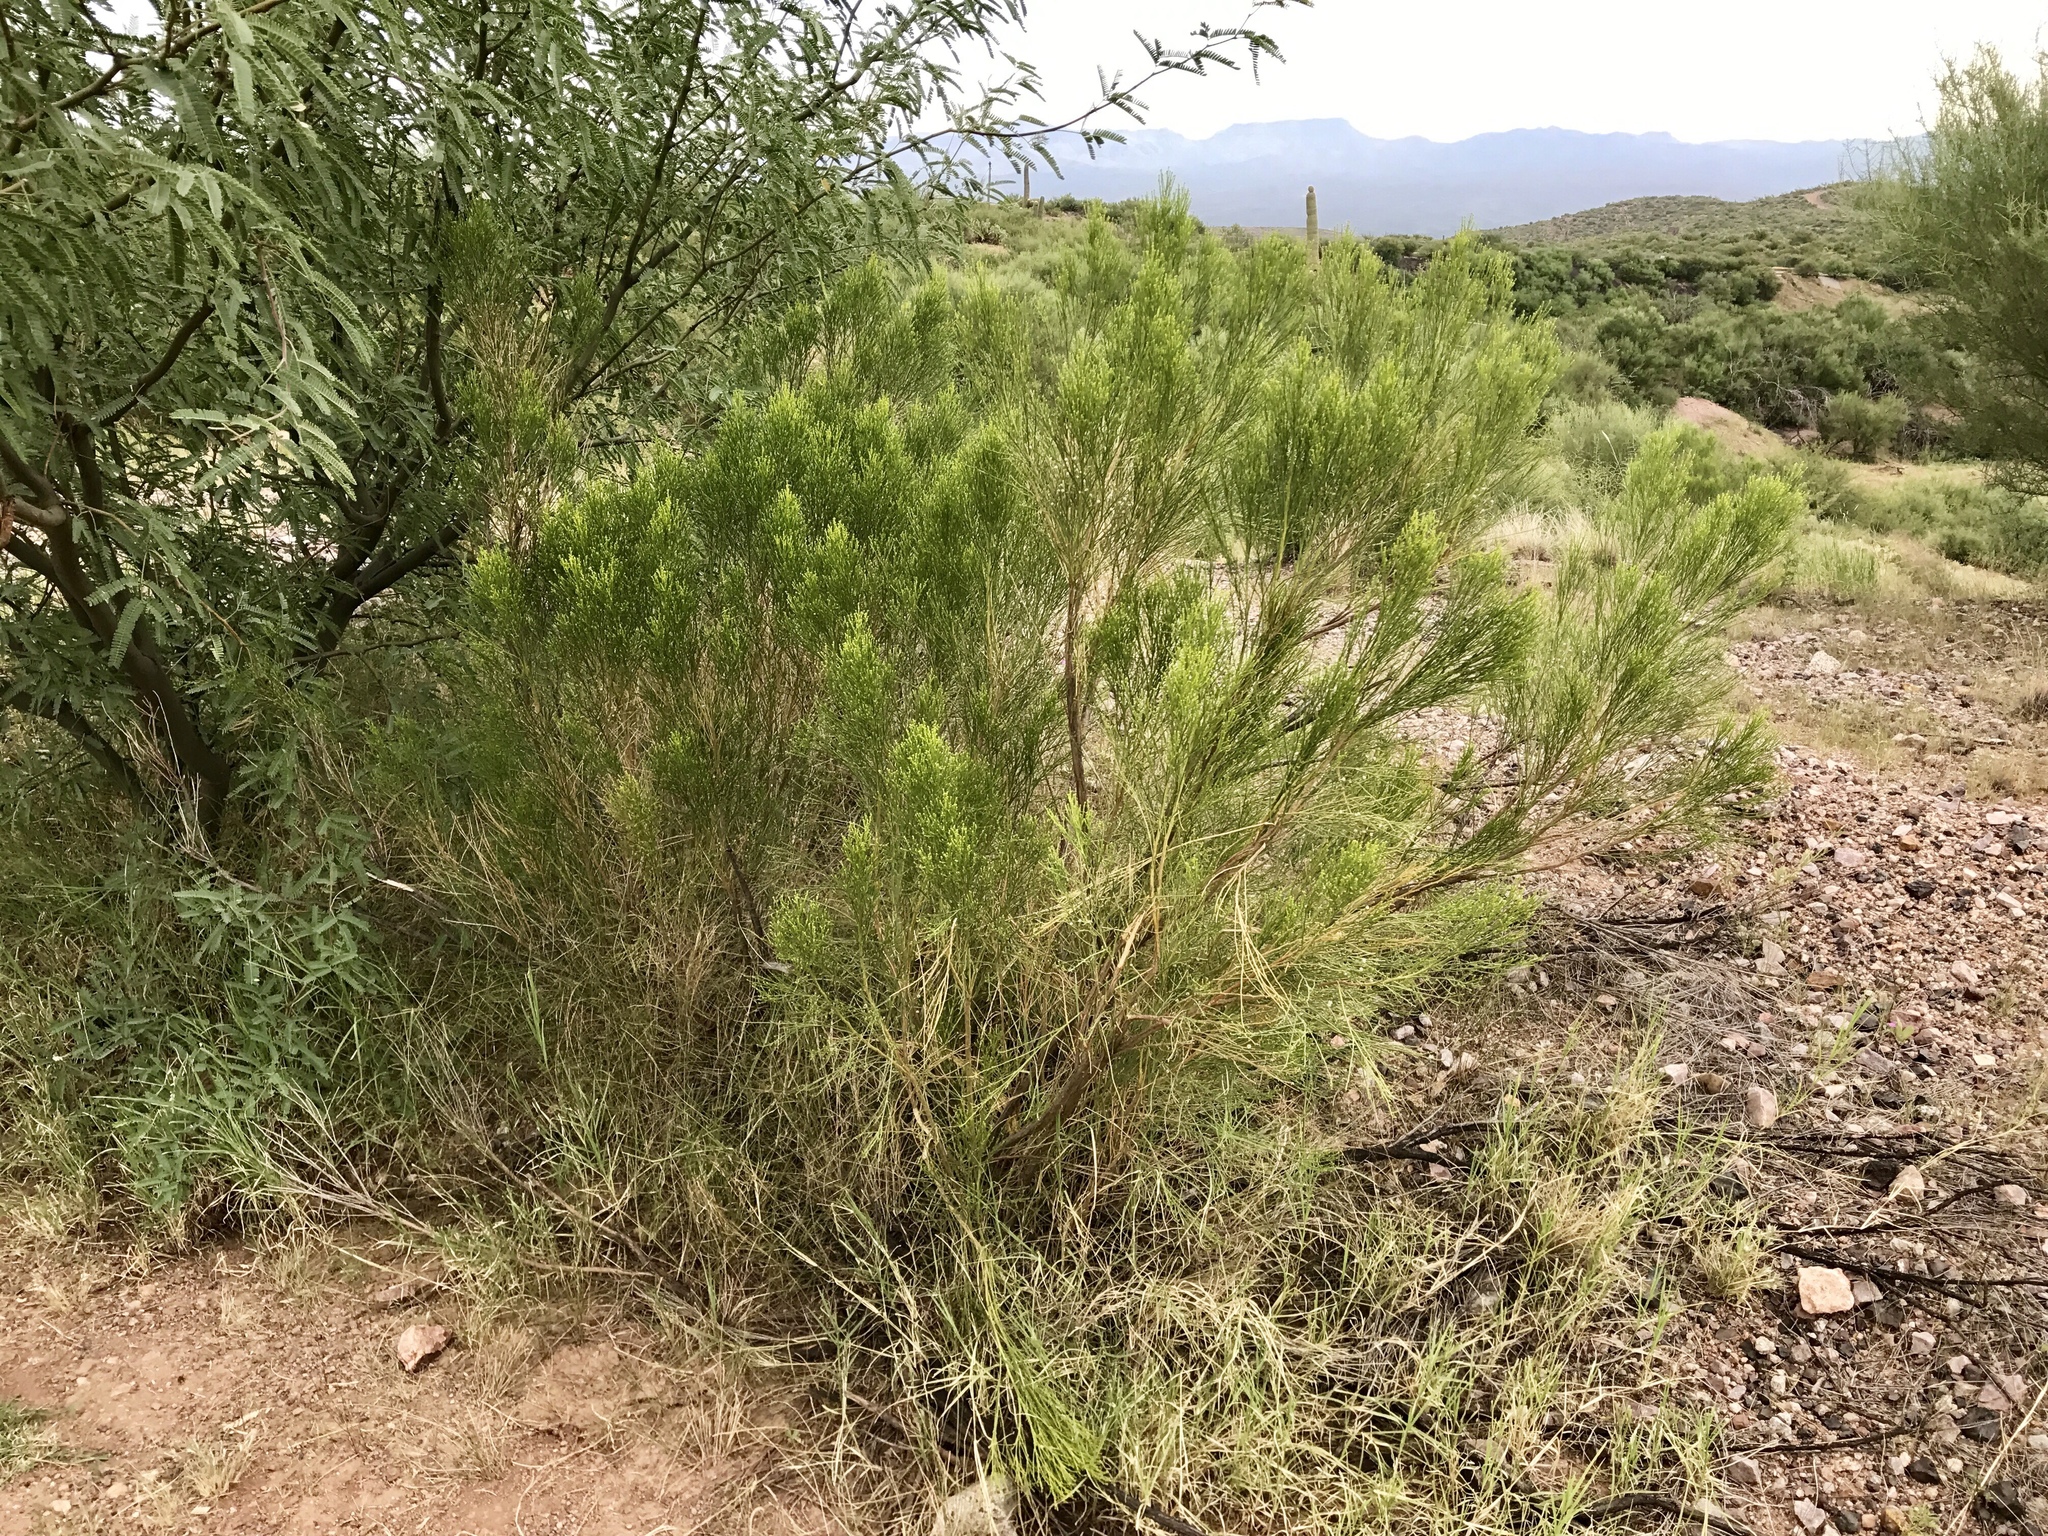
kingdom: Plantae
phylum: Tracheophyta
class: Magnoliopsida
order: Asterales
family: Asteraceae
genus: Baccharis
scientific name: Baccharis sarothroides
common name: Desert-broom
